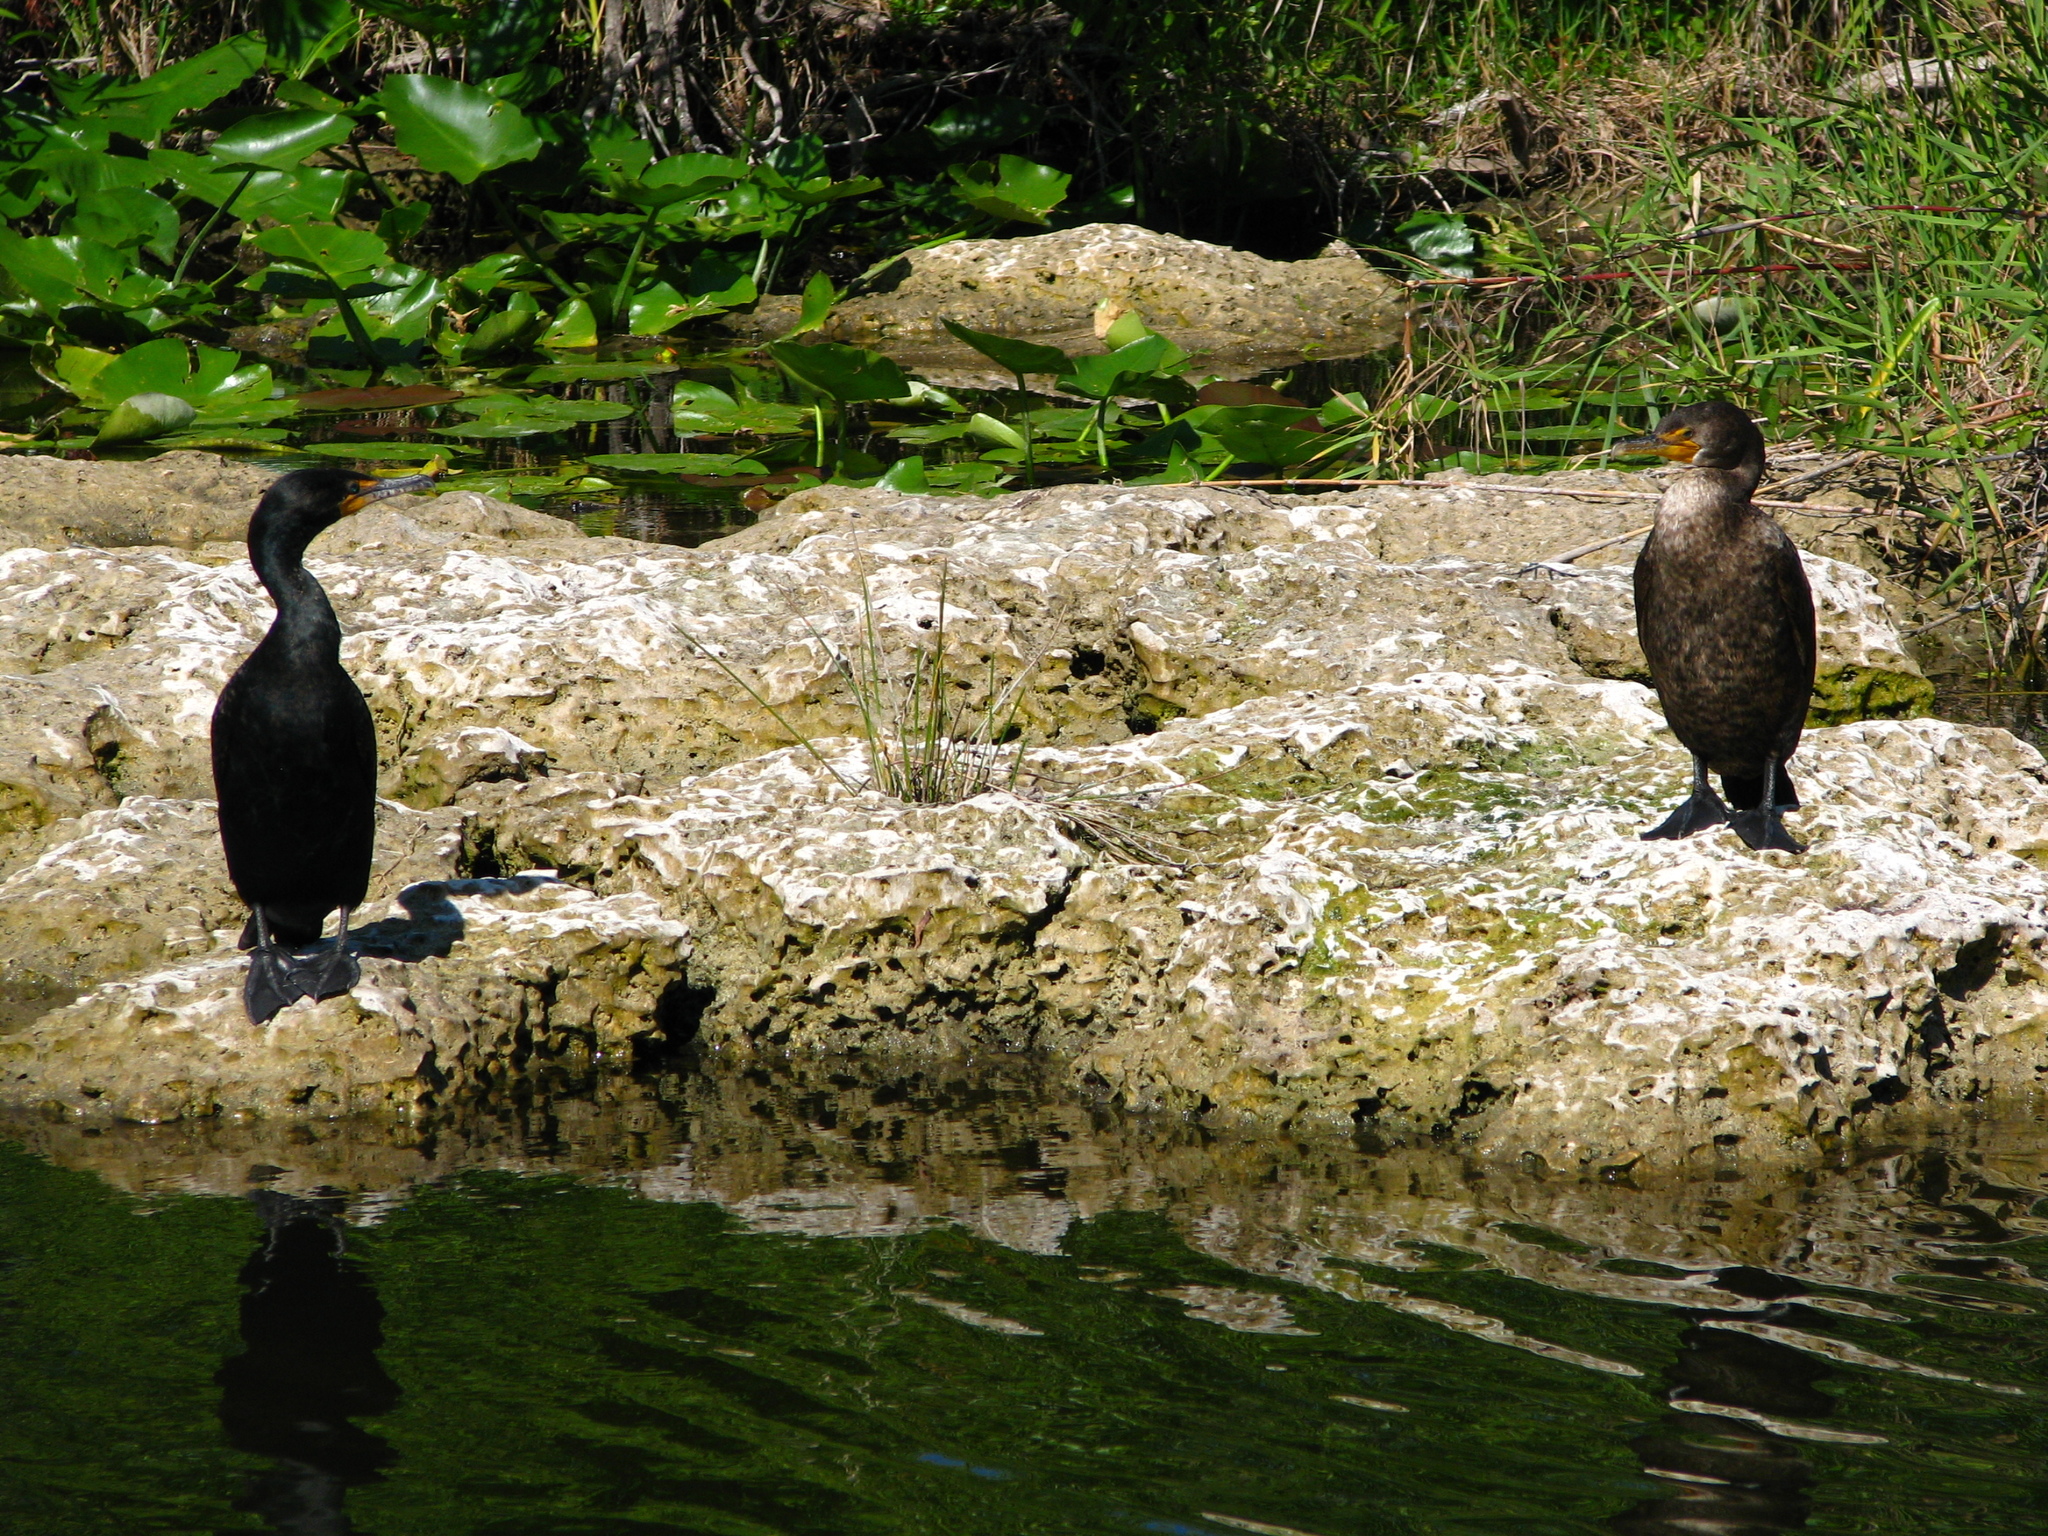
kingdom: Animalia
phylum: Chordata
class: Aves
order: Suliformes
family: Phalacrocoracidae
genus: Phalacrocorax
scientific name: Phalacrocorax auritus
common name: Double-crested cormorant
